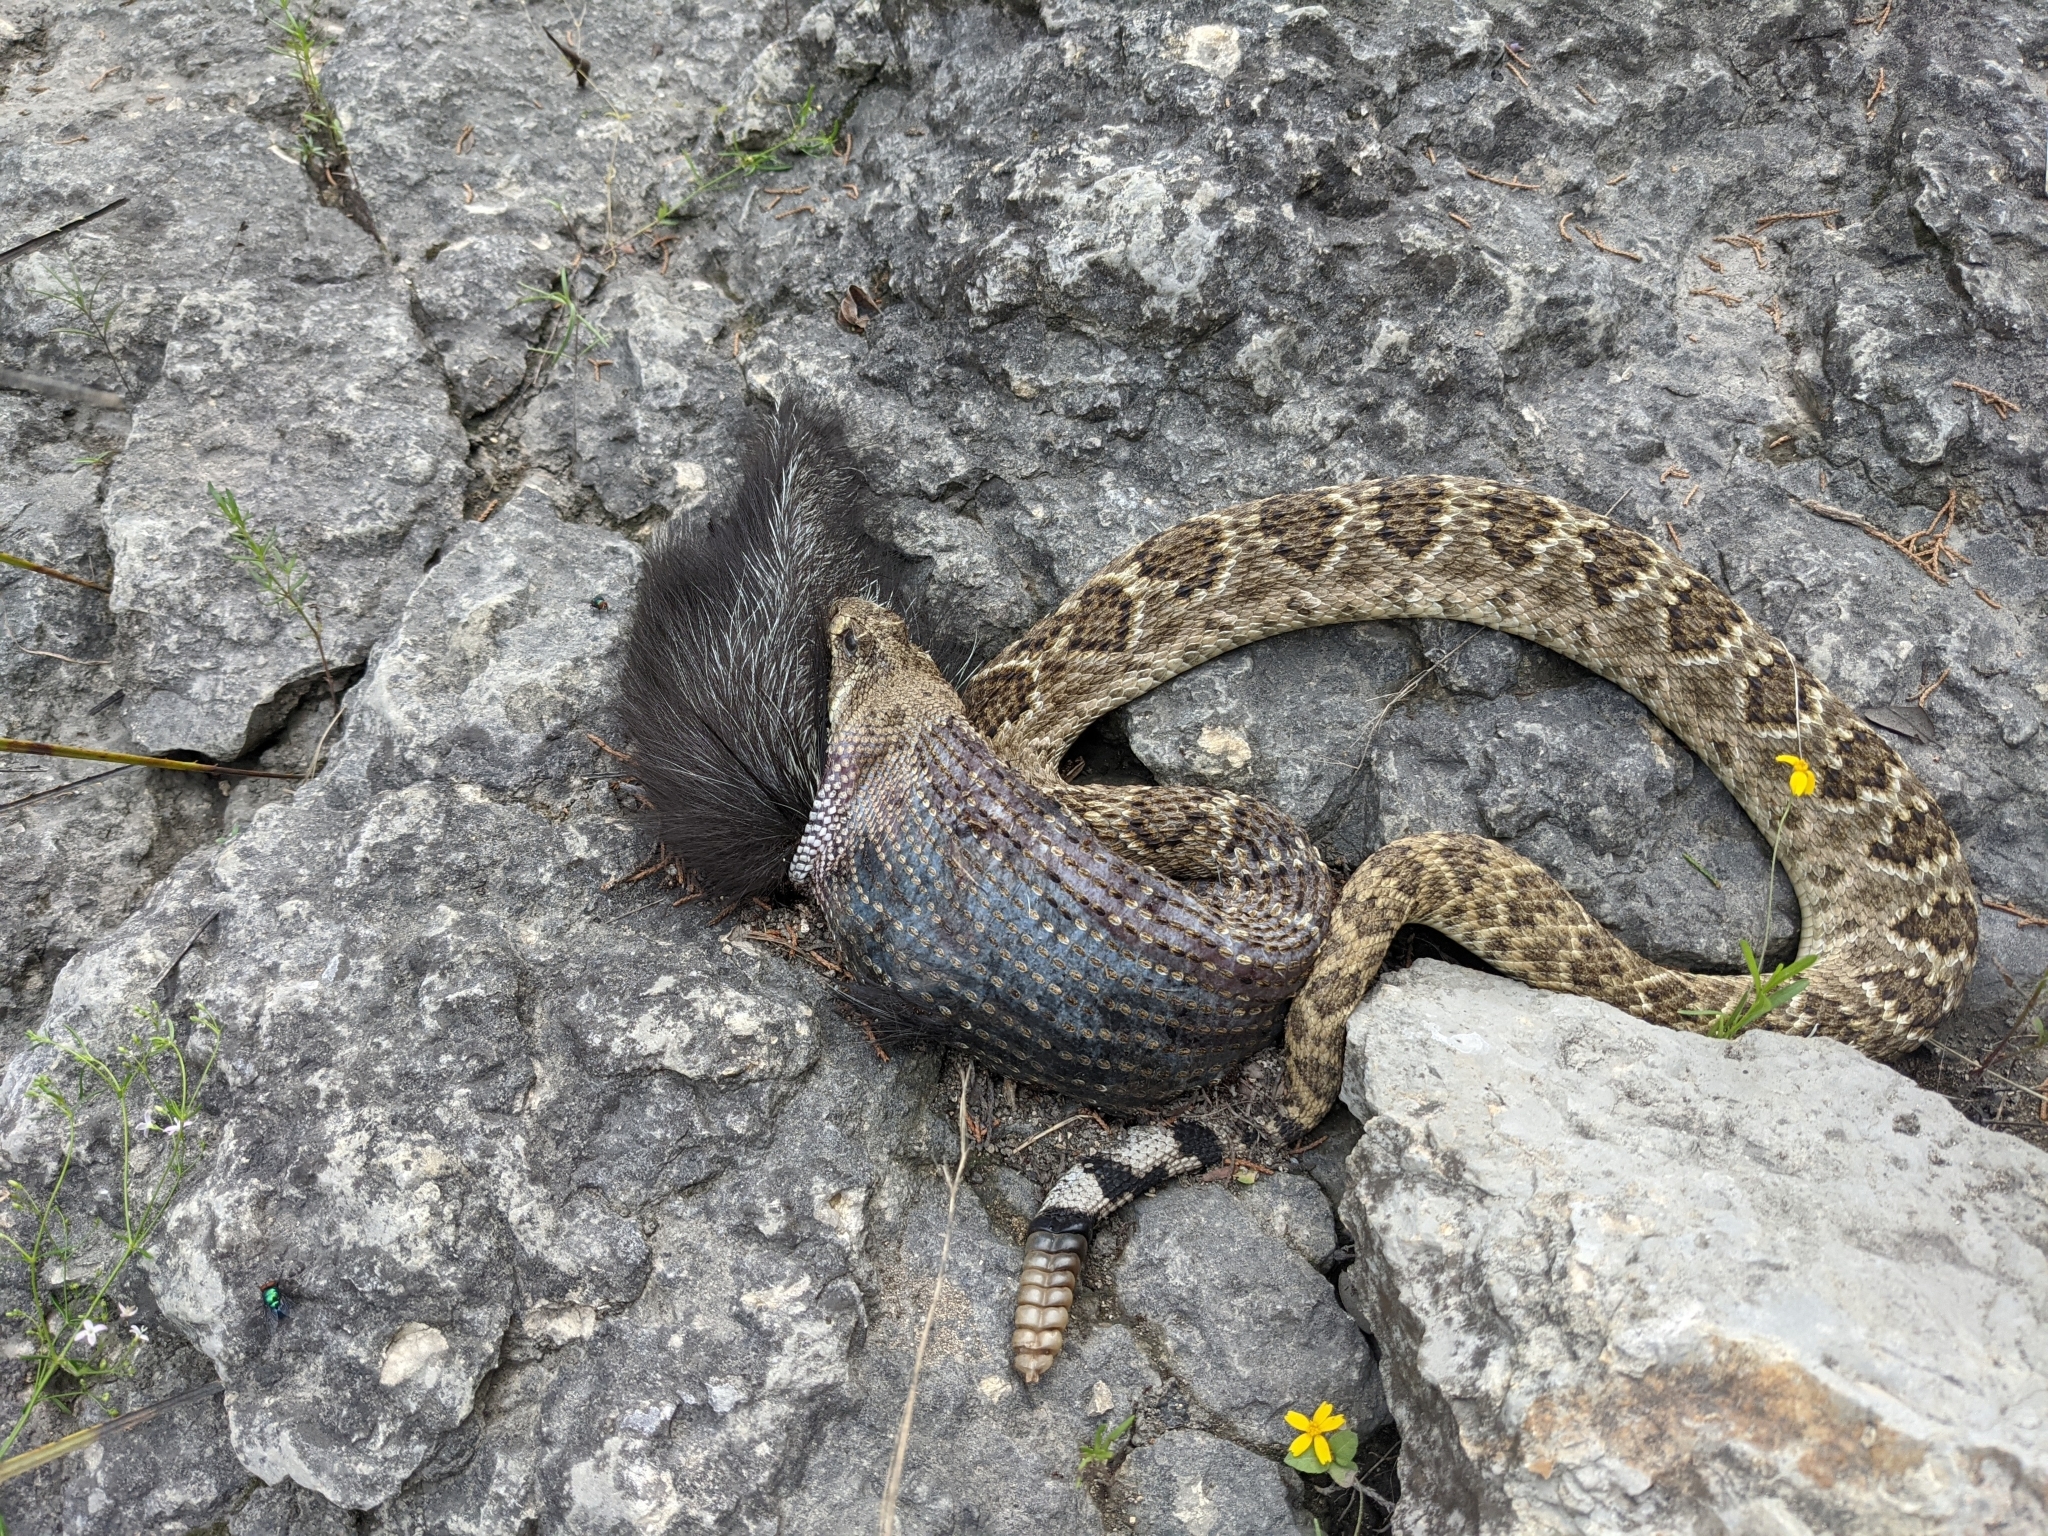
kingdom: Animalia
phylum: Chordata
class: Squamata
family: Viperidae
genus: Crotalus
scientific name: Crotalus atrox
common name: Western diamond-backed rattlesnake
